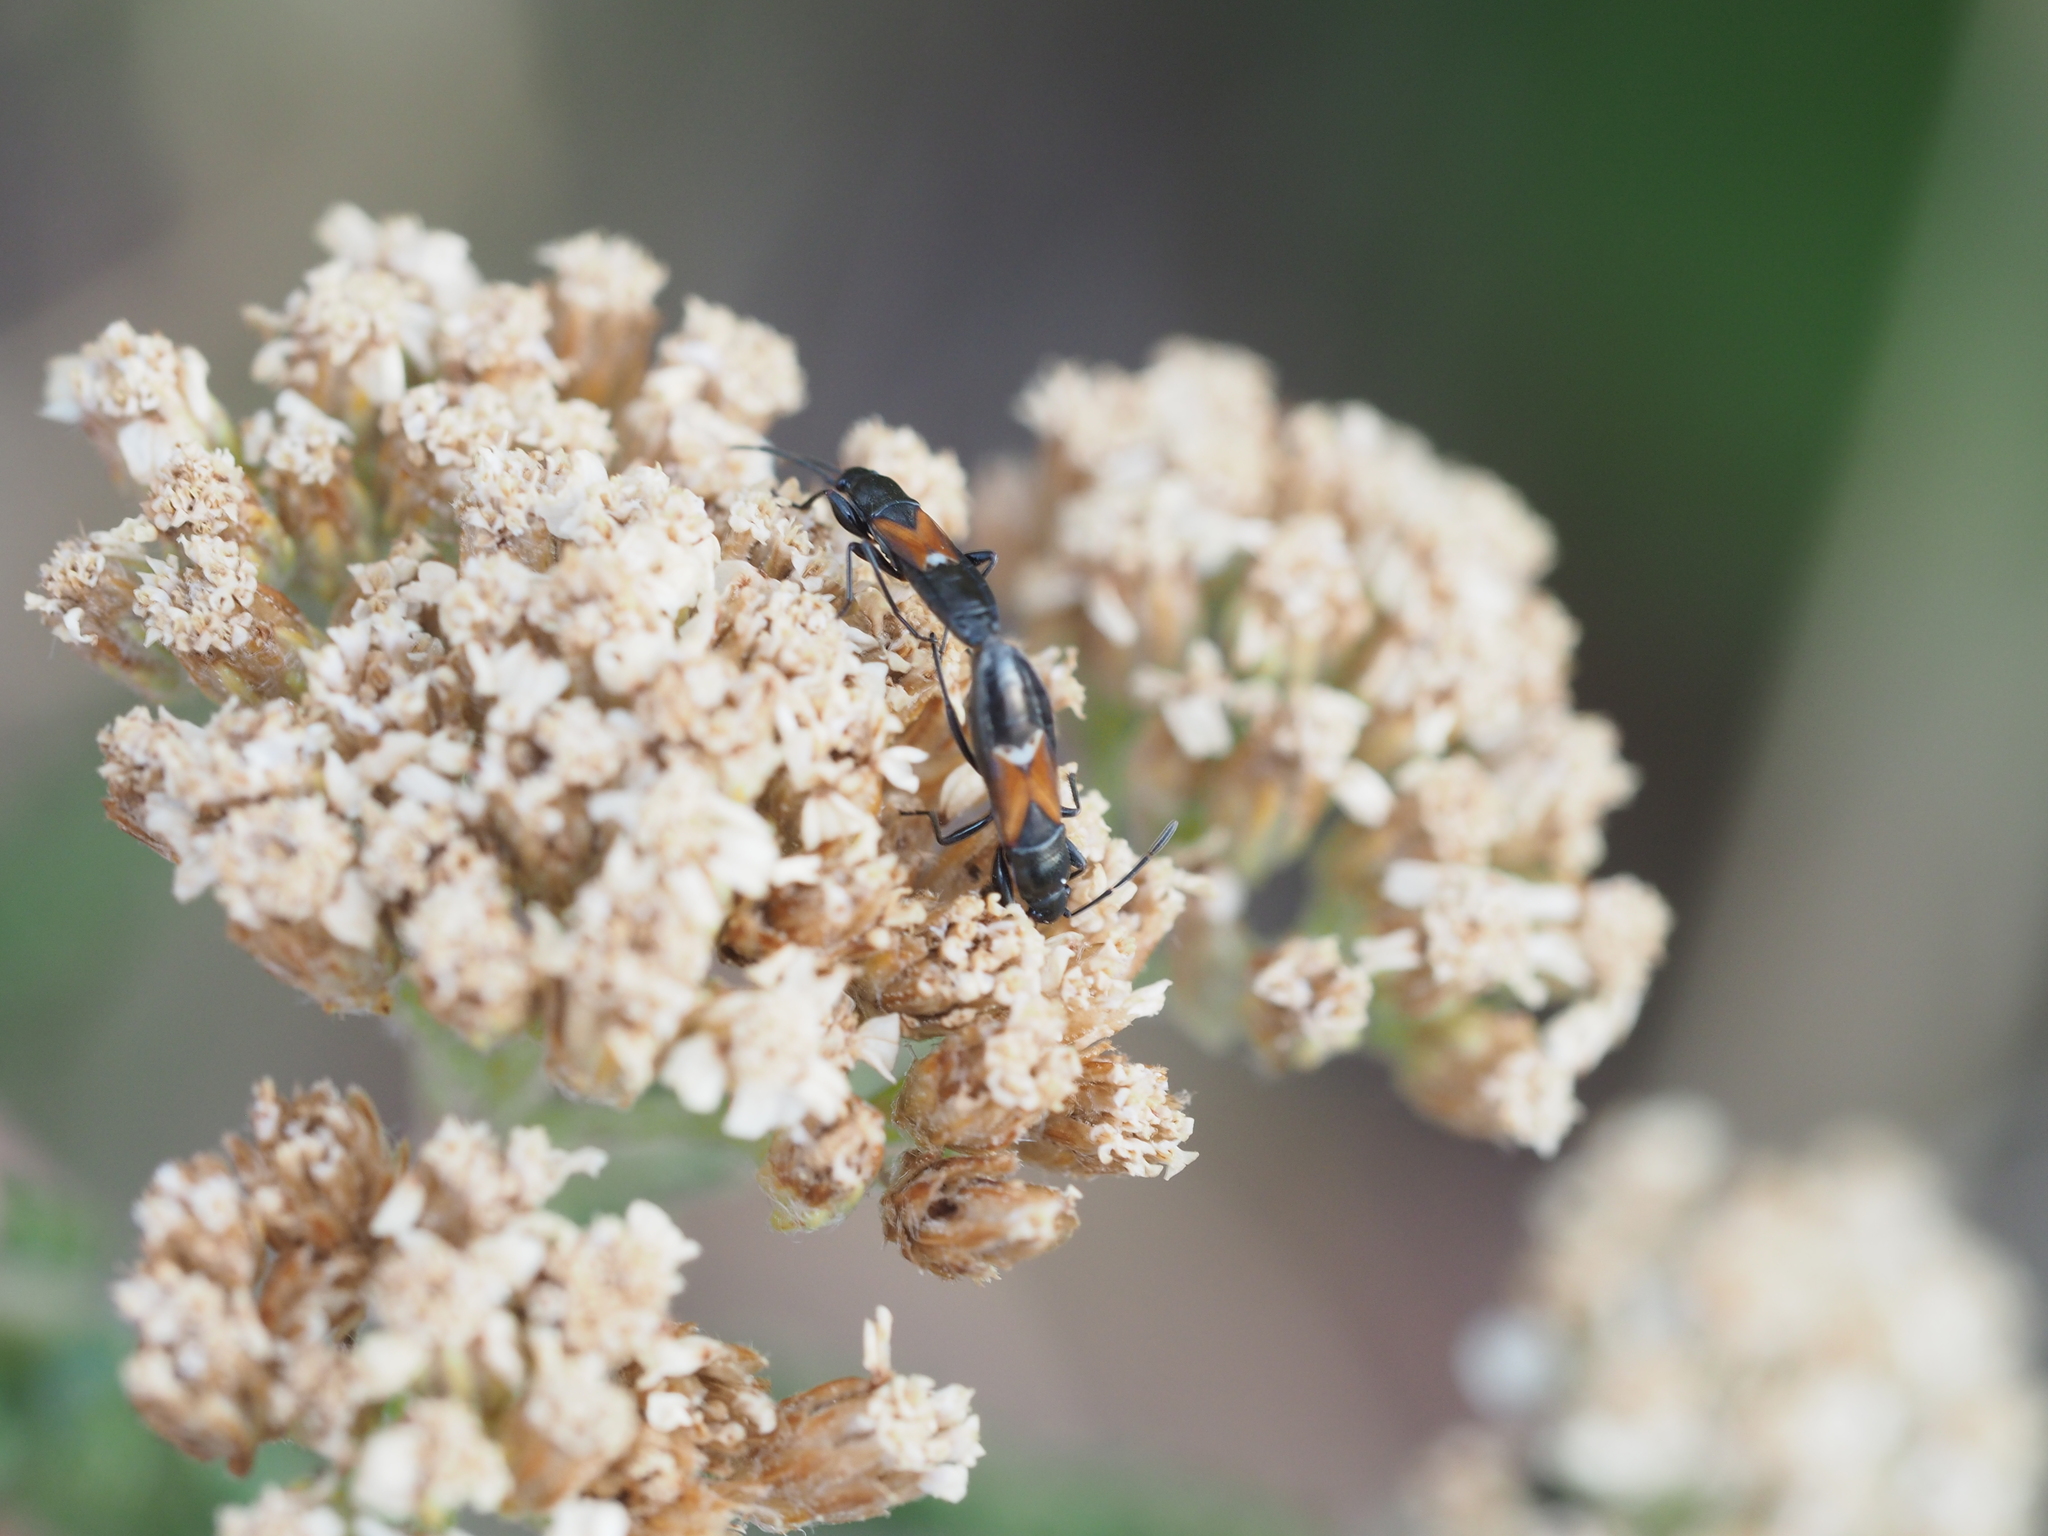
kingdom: Animalia
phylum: Arthropoda
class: Insecta
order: Hemiptera
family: Rhyparochromidae
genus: Pterotmetus
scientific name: Pterotmetus staphyliniformis
